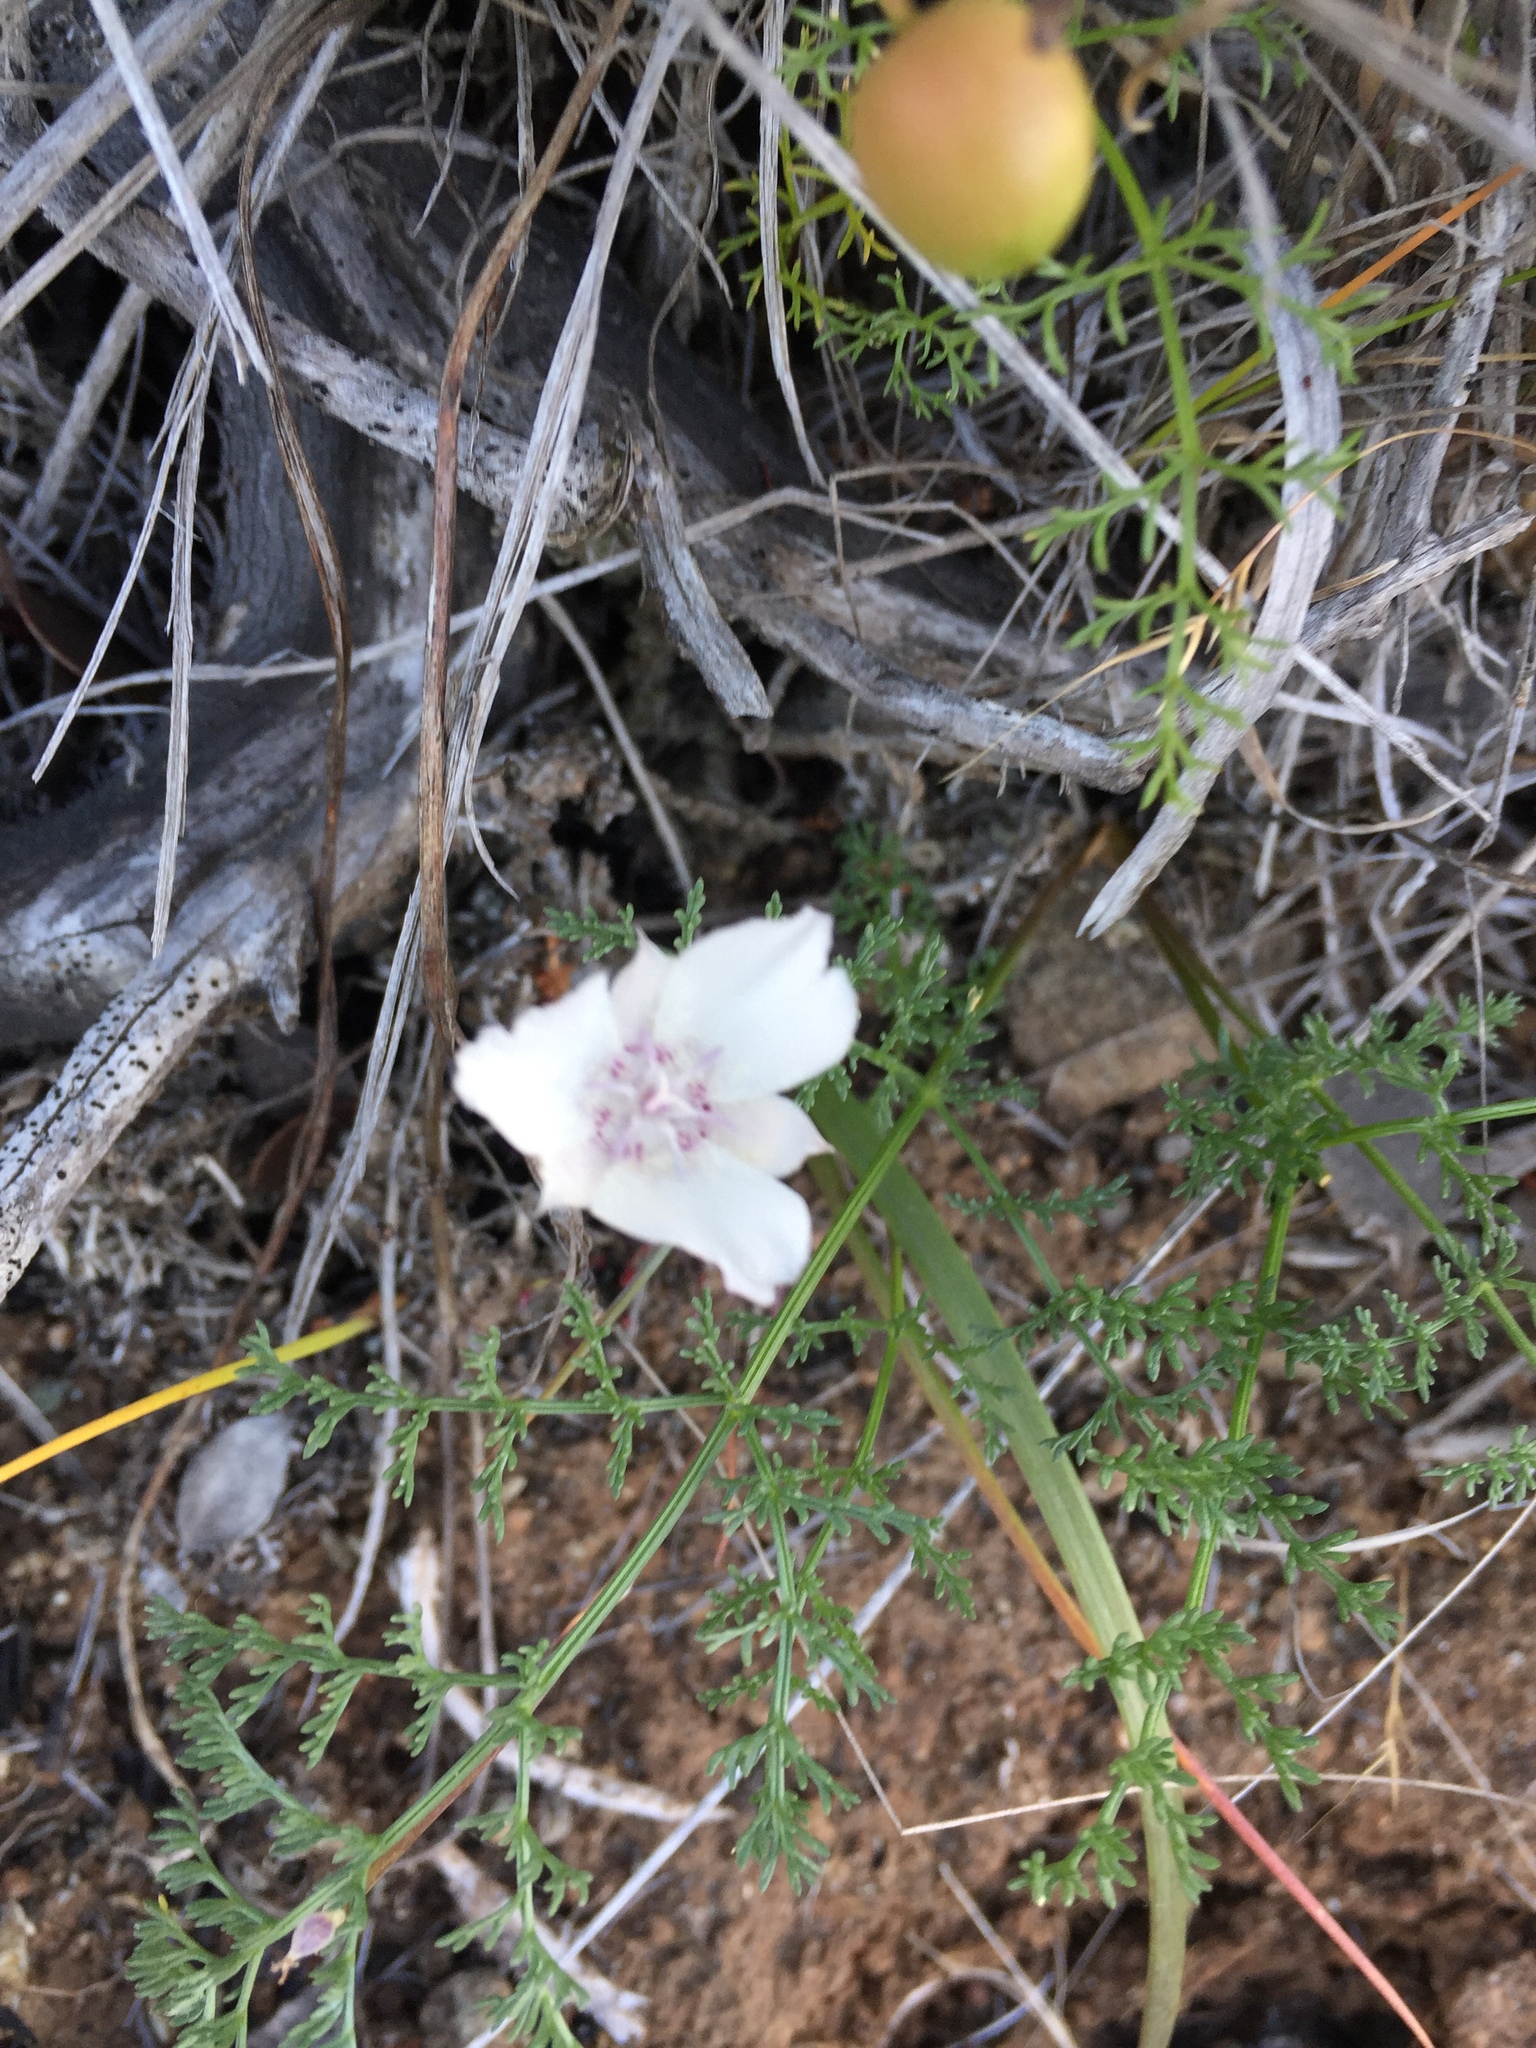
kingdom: Plantae
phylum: Tracheophyta
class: Liliopsida
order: Liliales
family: Liliaceae
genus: Calochortus
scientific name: Calochortus umbellatus
